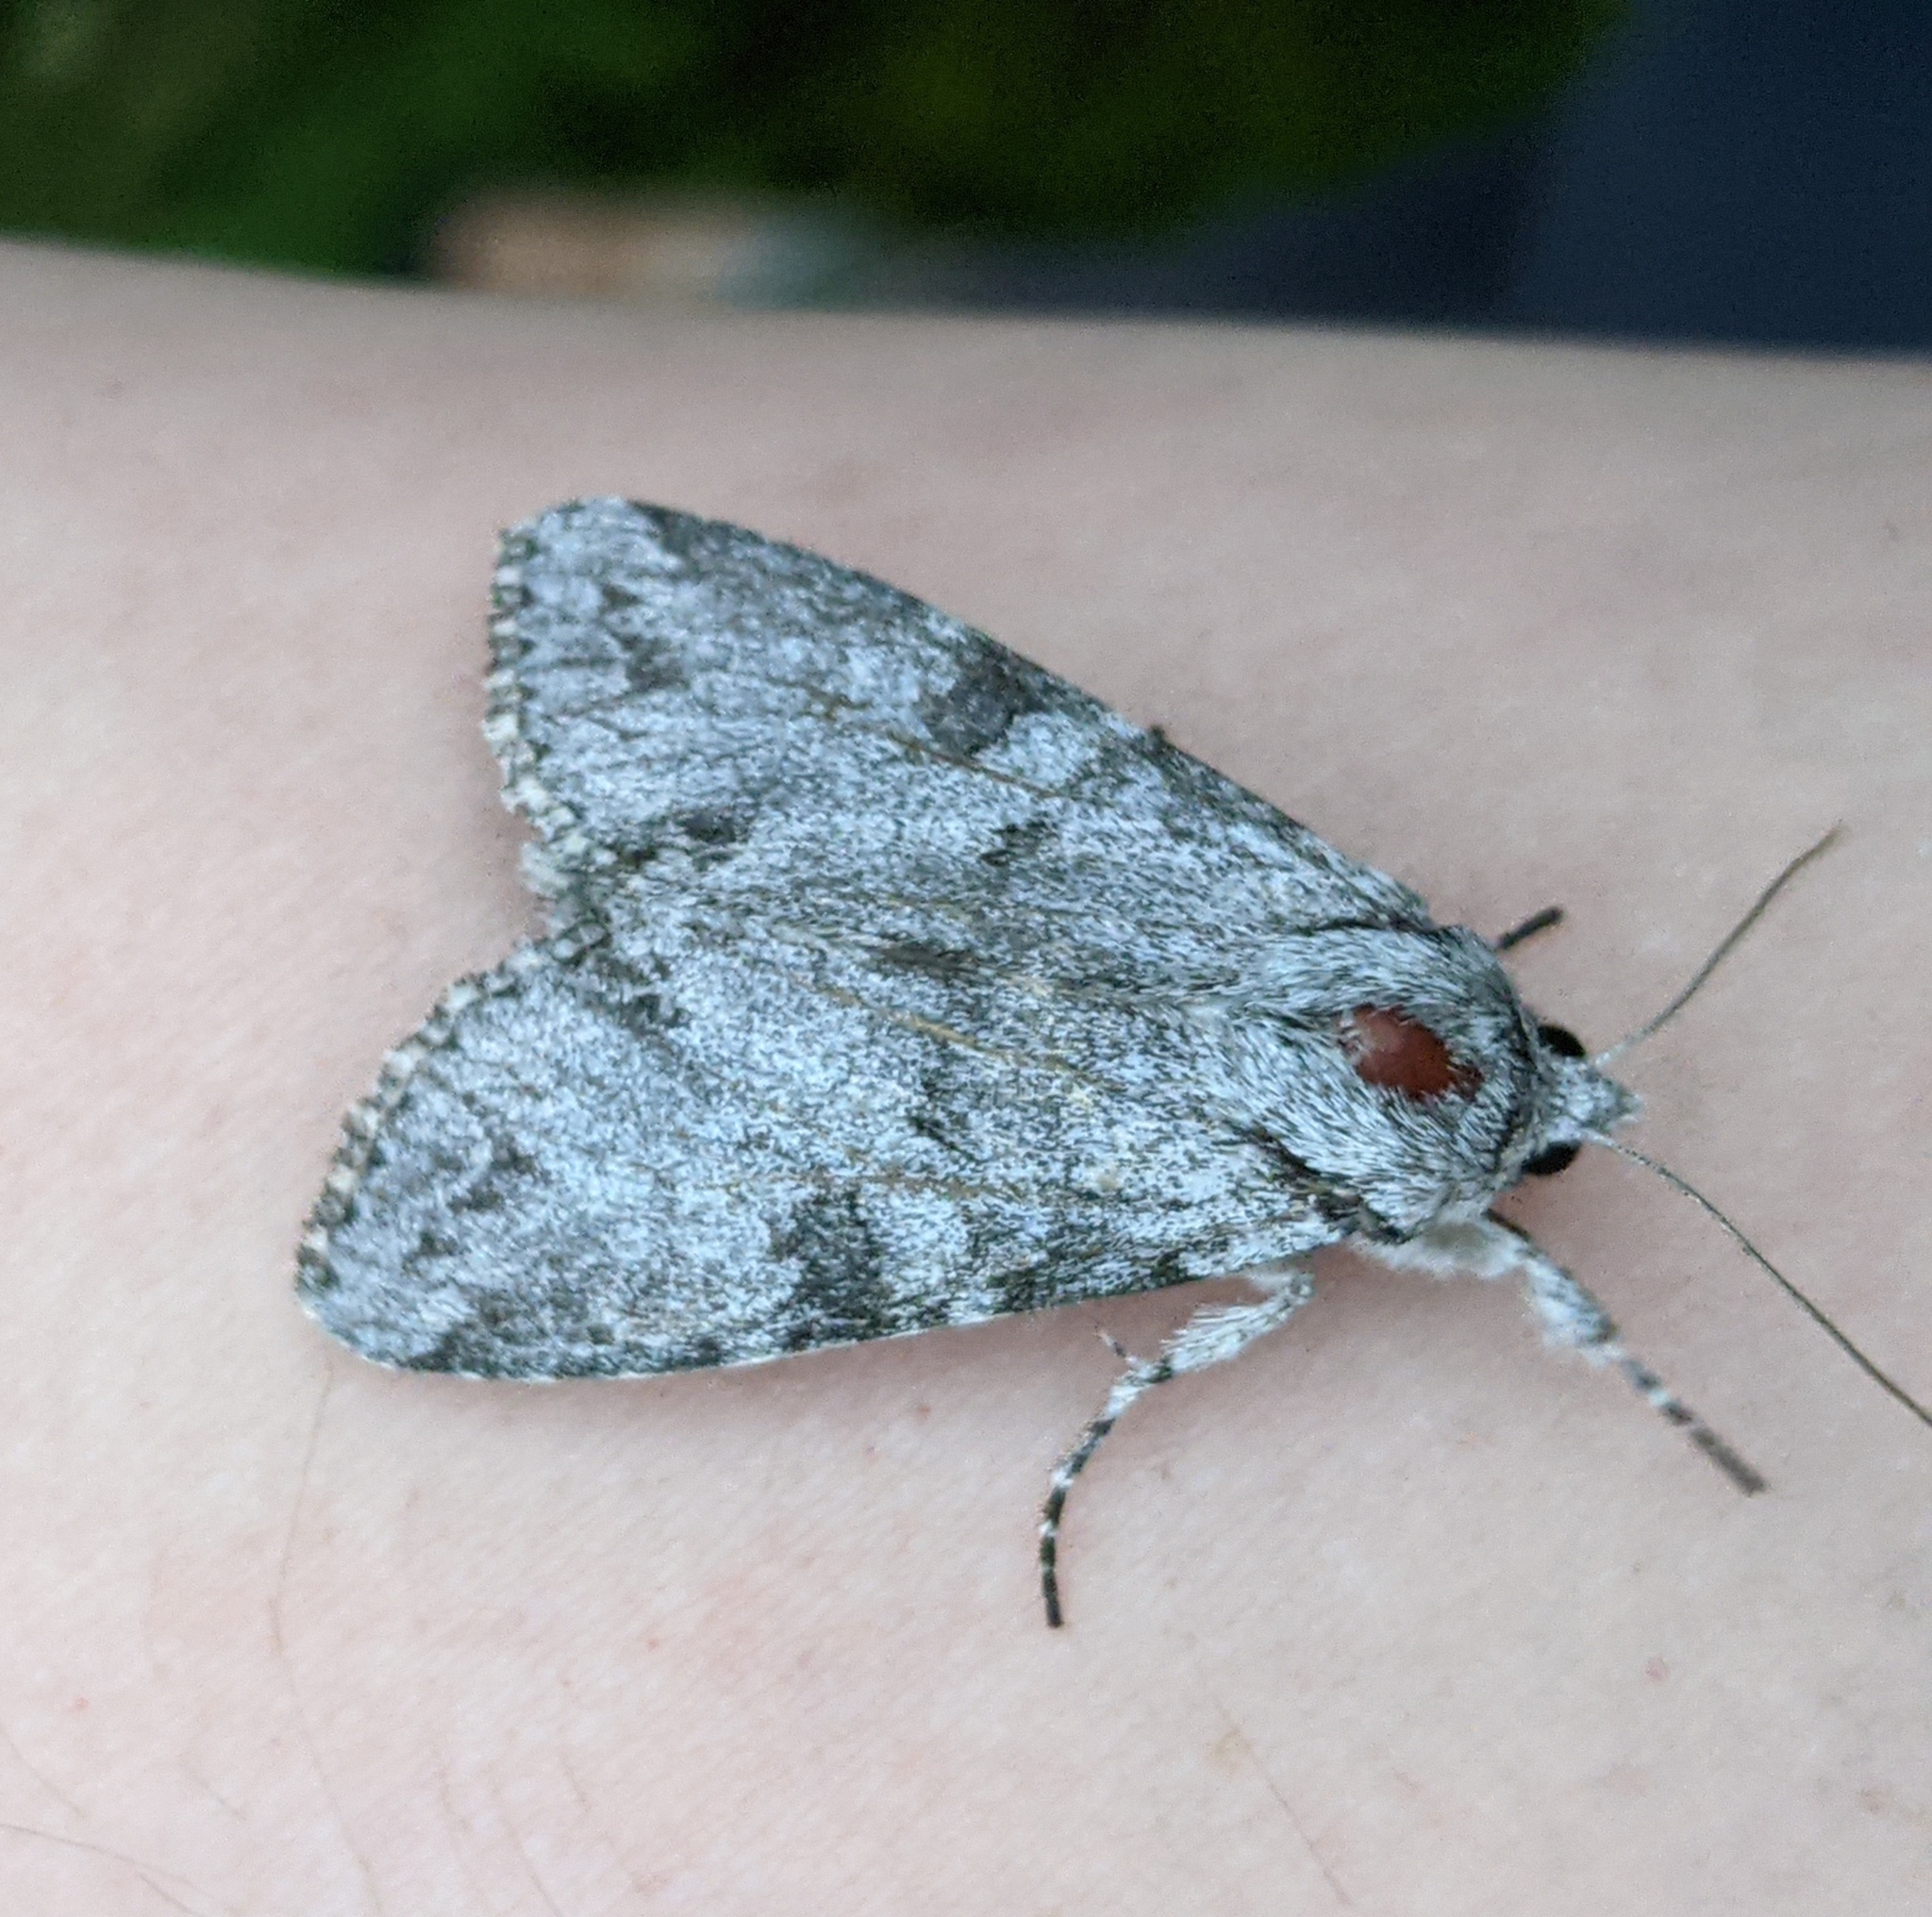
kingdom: Animalia
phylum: Arthropoda
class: Insecta
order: Lepidoptera
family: Noctuidae
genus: Polia
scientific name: Polia piniae
